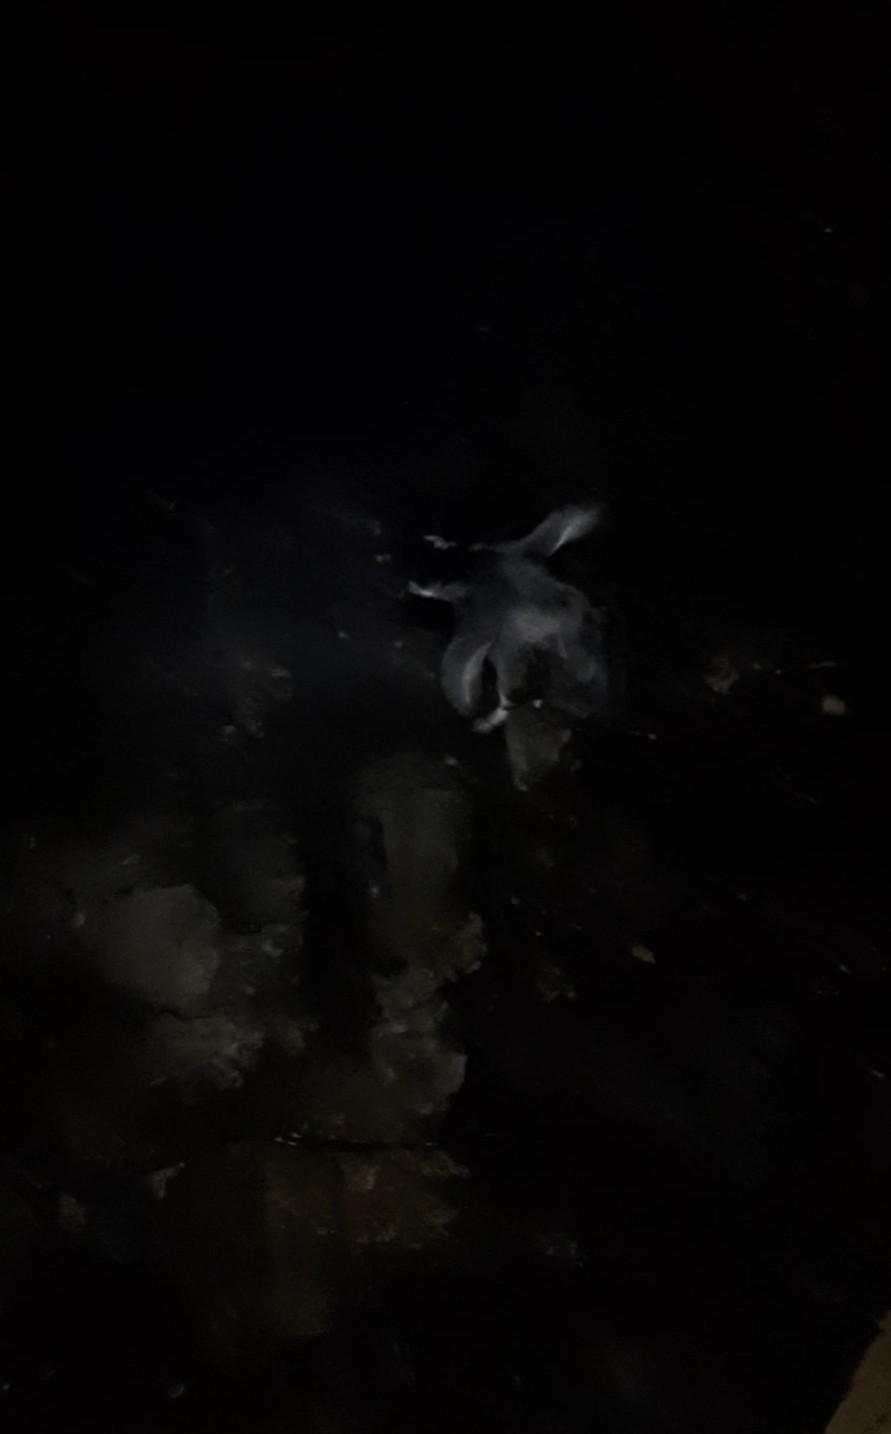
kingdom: Animalia
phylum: Chordata
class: Aves
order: Sphenisciformes
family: Spheniscidae
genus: Eudyptula
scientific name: Eudyptula minor
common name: Little penguin
